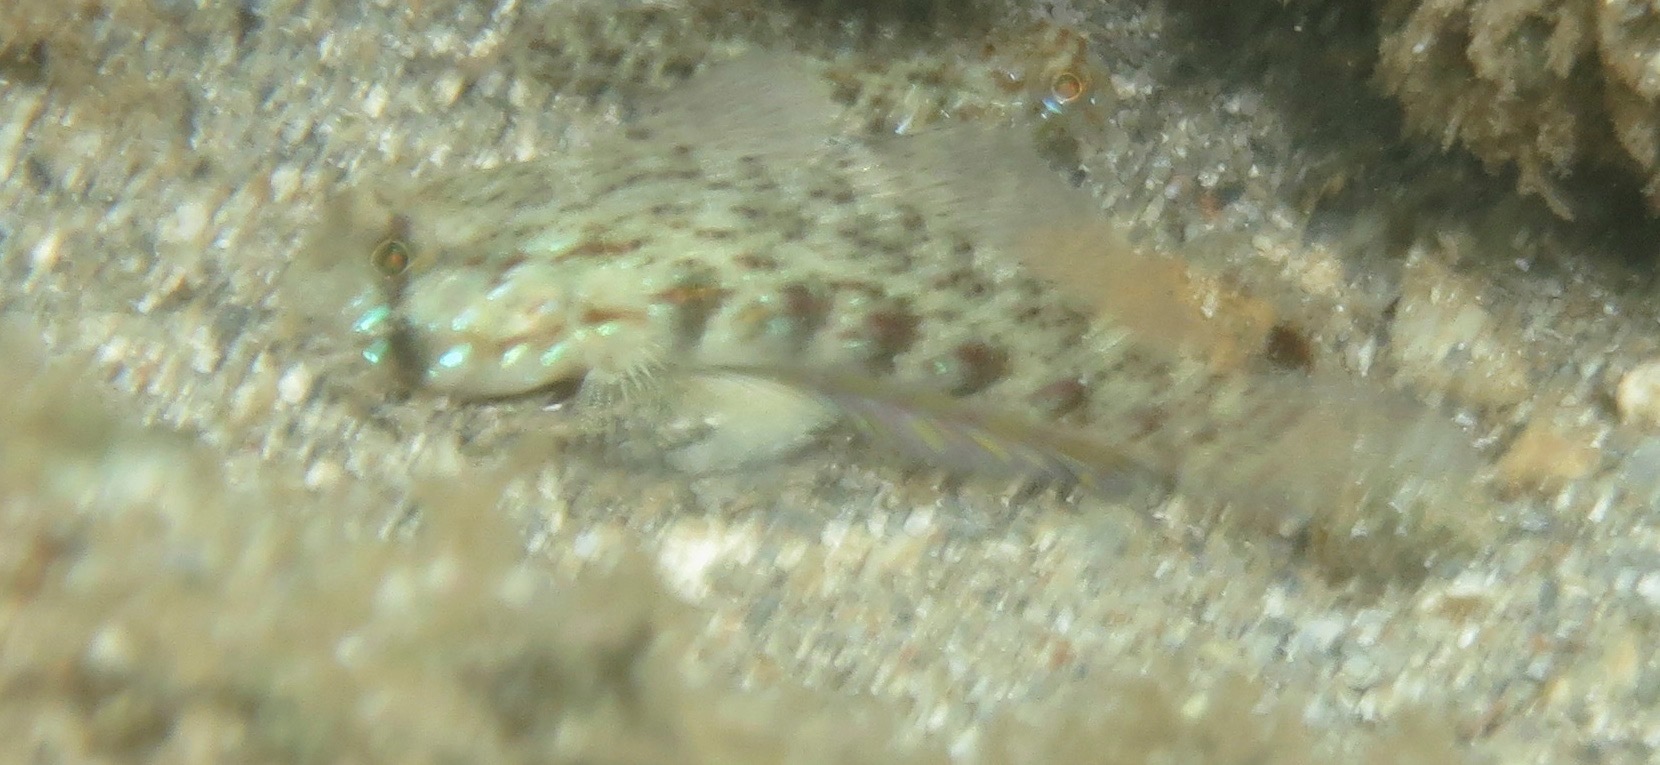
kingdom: Animalia
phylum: Chordata
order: Perciformes
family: Gobiidae
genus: Gnatholepis
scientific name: Gnatholepis ophthalmotaenia
